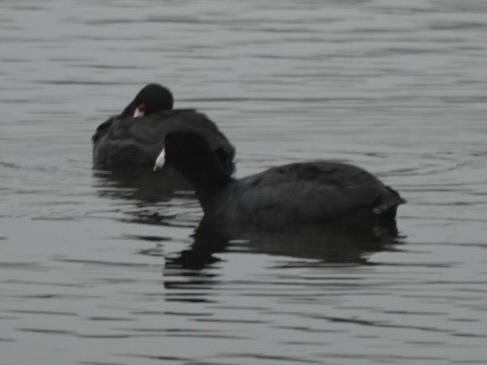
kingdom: Animalia
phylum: Chordata
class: Aves
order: Gruiformes
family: Rallidae
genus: Fulica
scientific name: Fulica americana
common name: American coot
